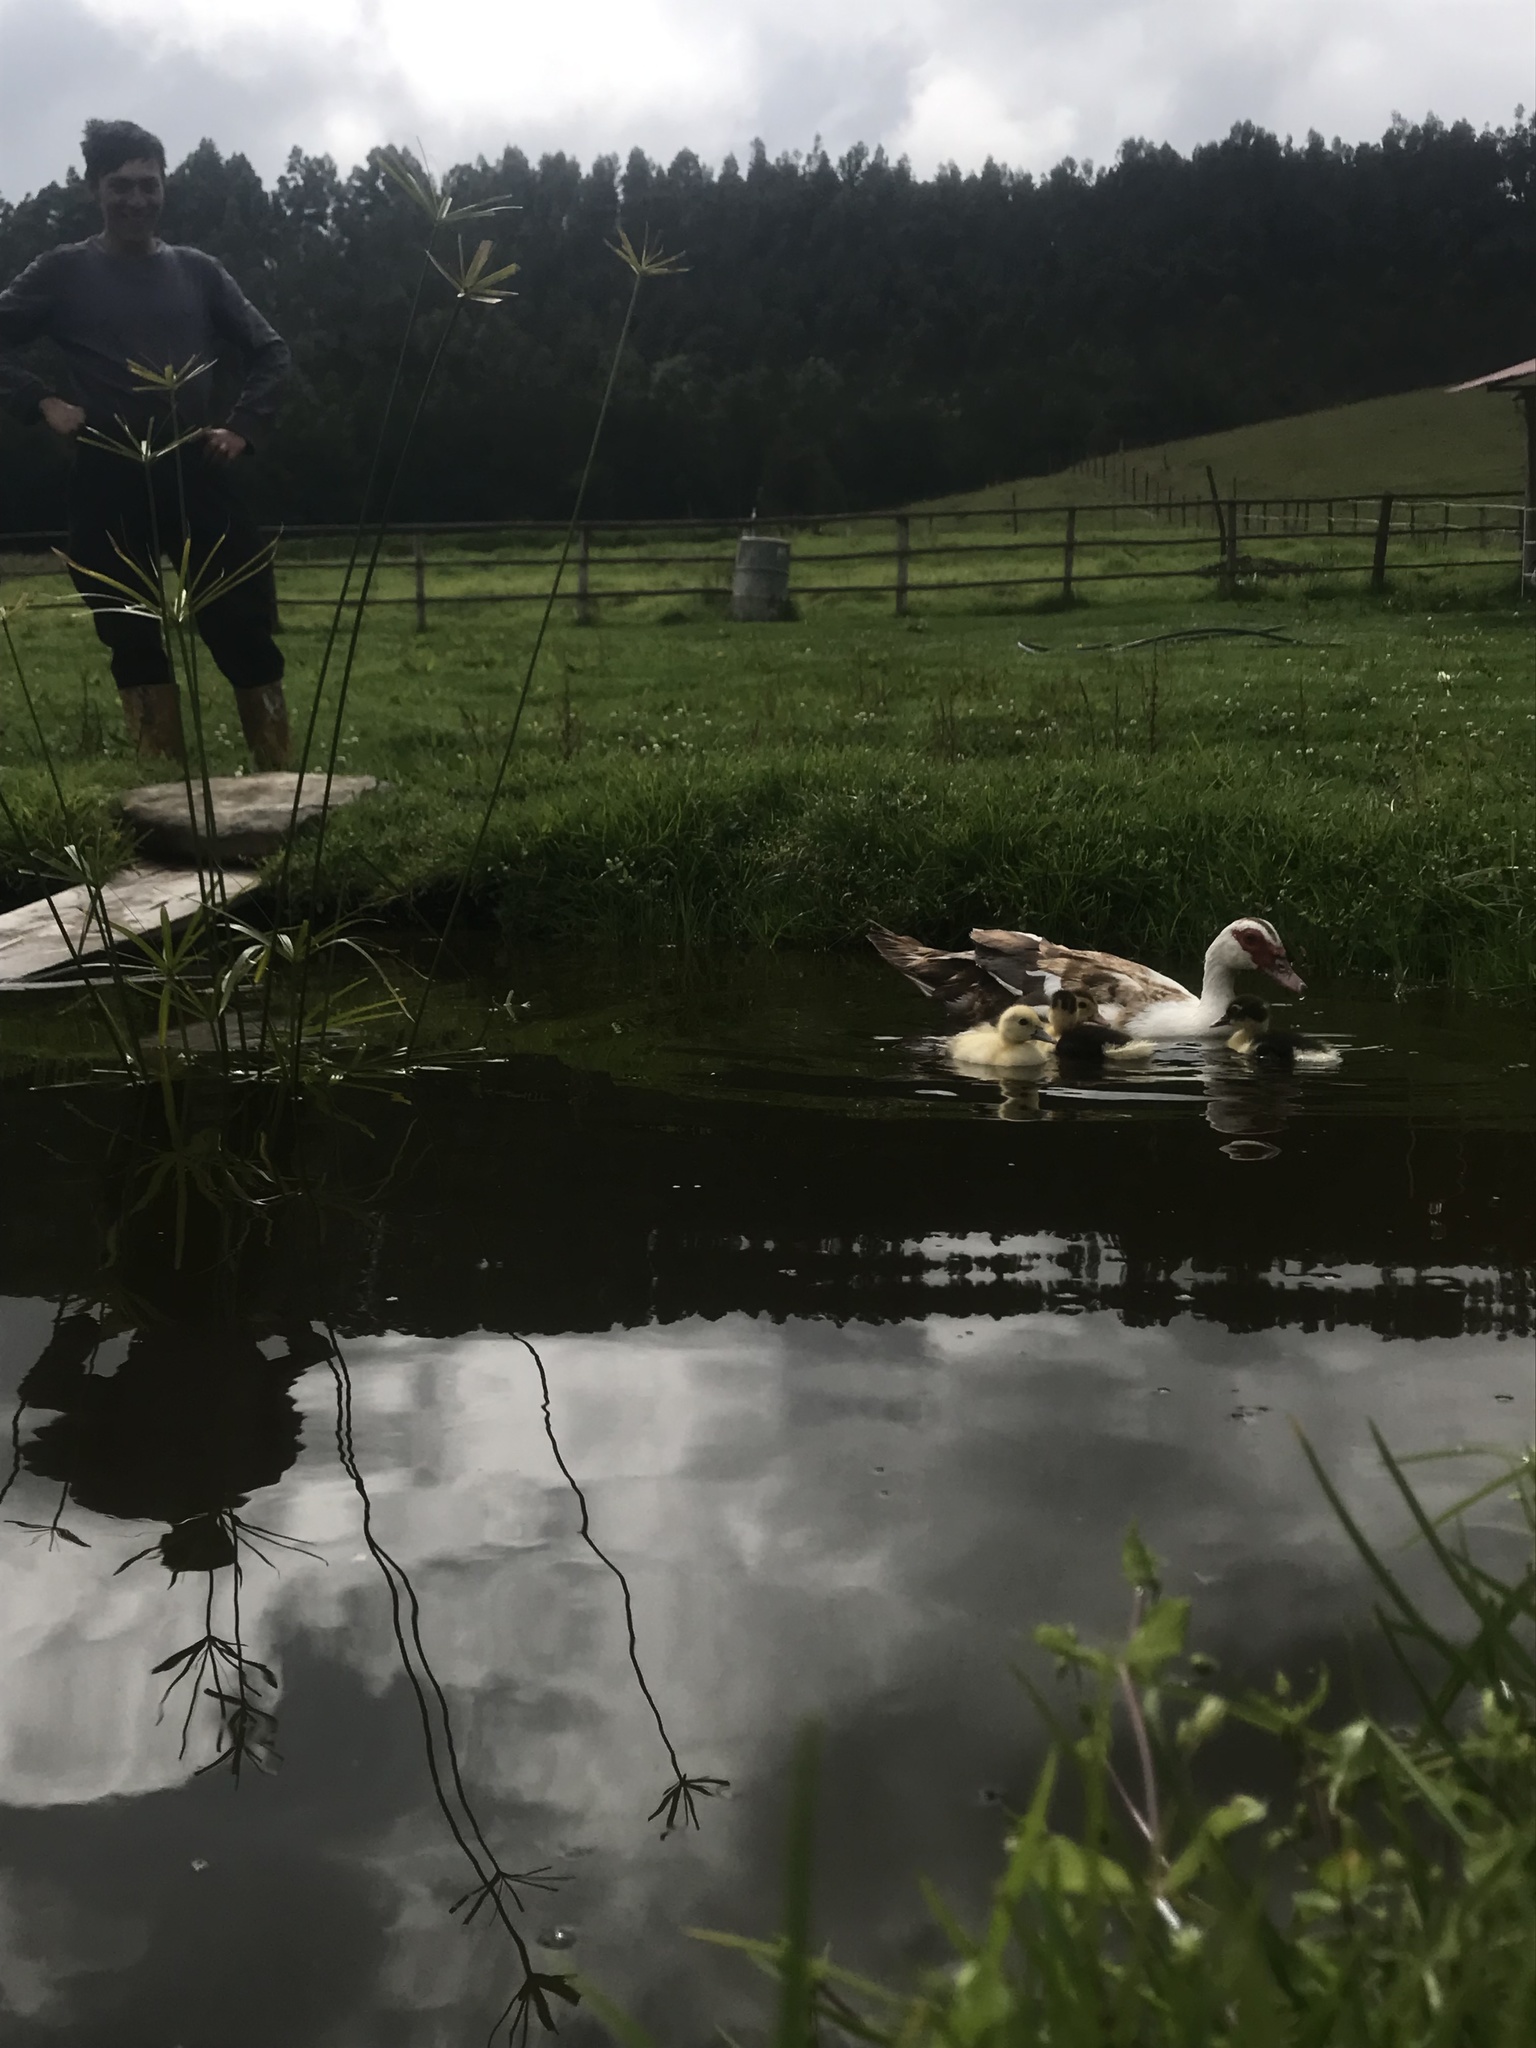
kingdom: Animalia
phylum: Chordata
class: Aves
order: Anseriformes
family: Anatidae
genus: Cairina
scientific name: Cairina moschata
